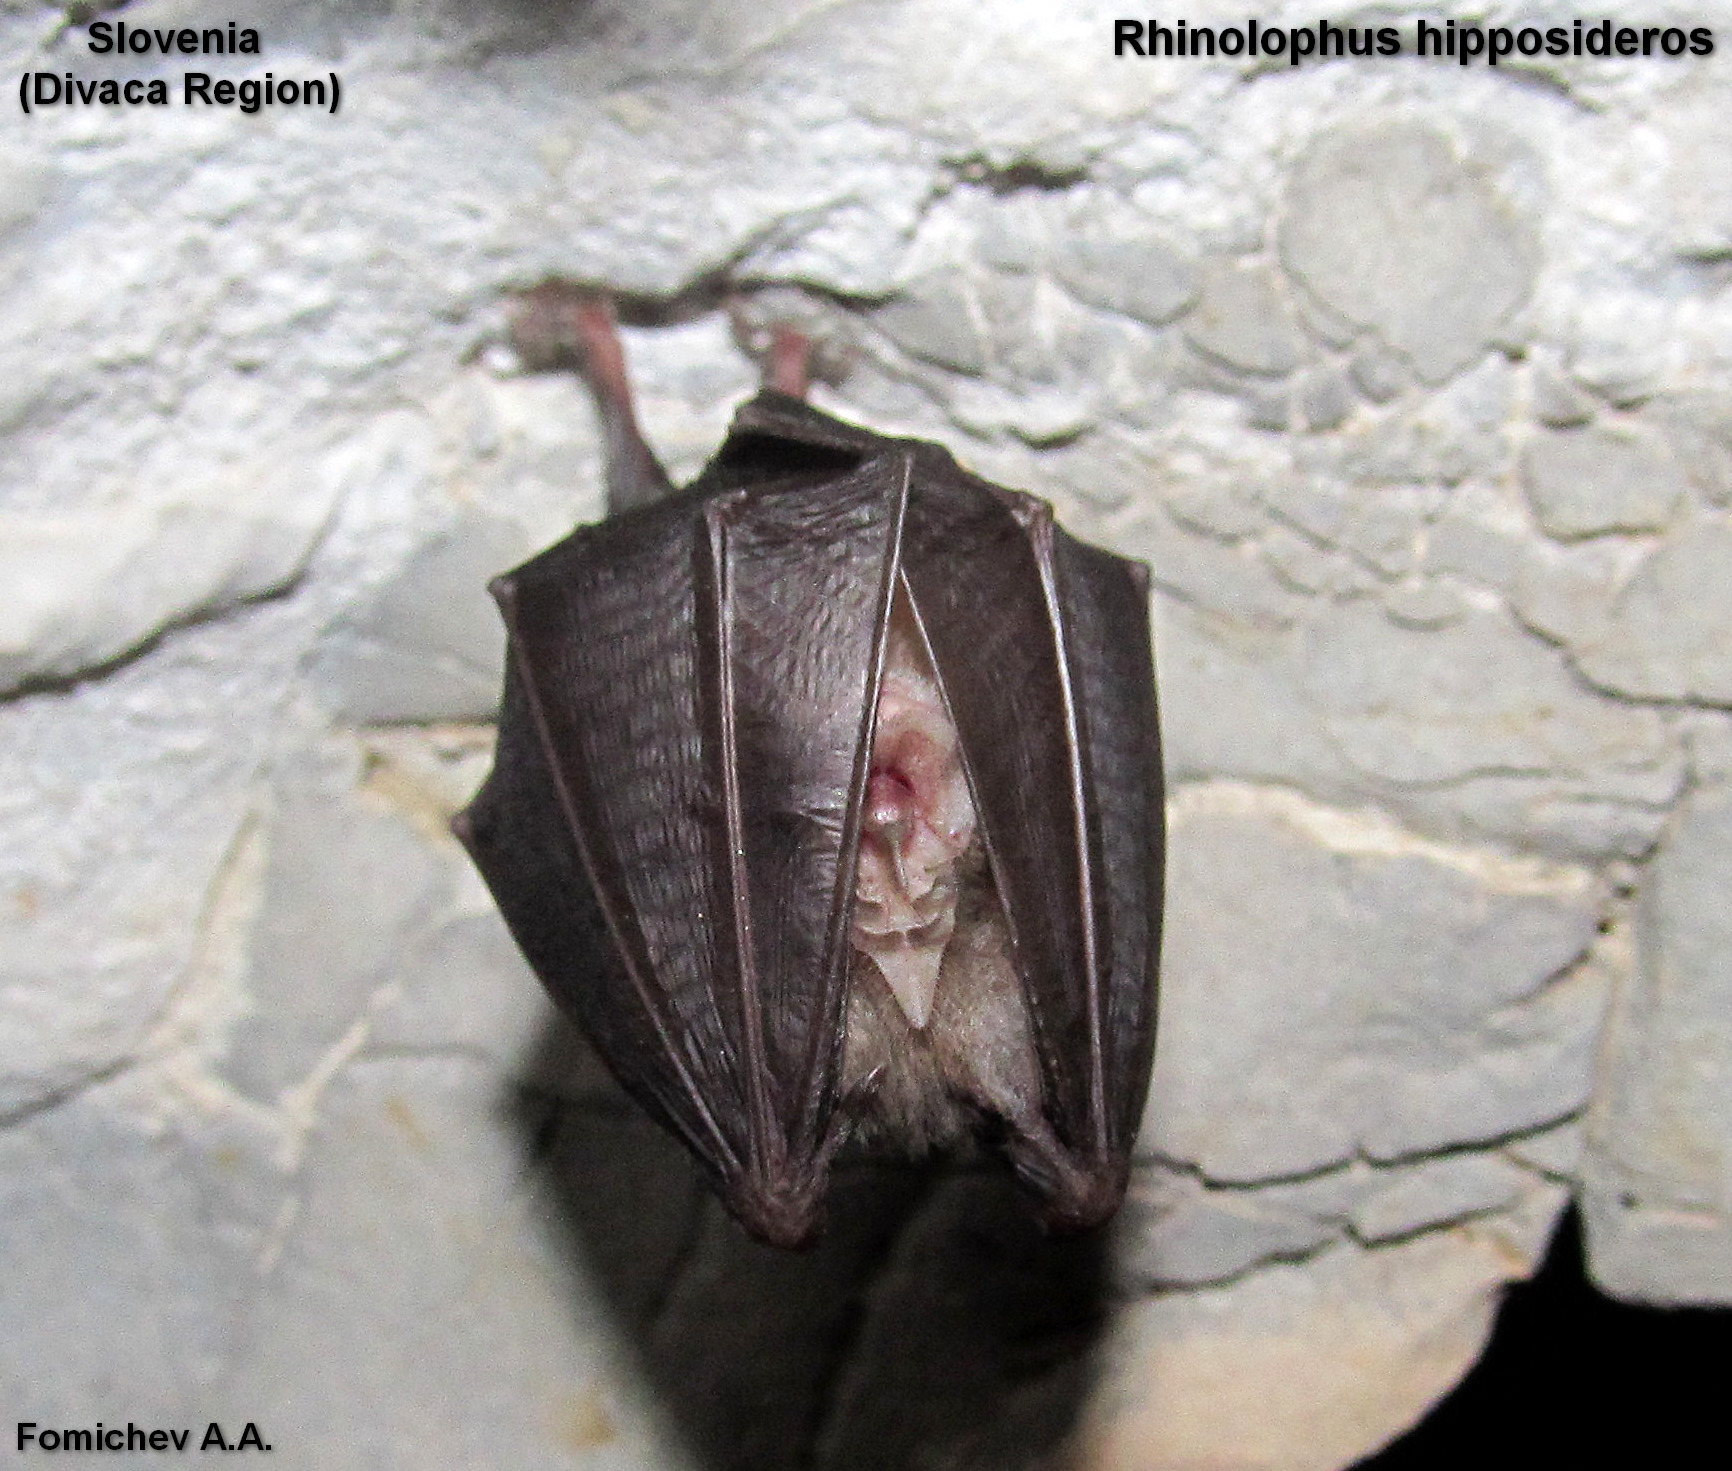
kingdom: Animalia
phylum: Chordata
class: Mammalia
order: Chiroptera
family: Rhinolophidae
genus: Rhinolophus
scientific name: Rhinolophus hipposideros
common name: Lesser horseshoe bat
